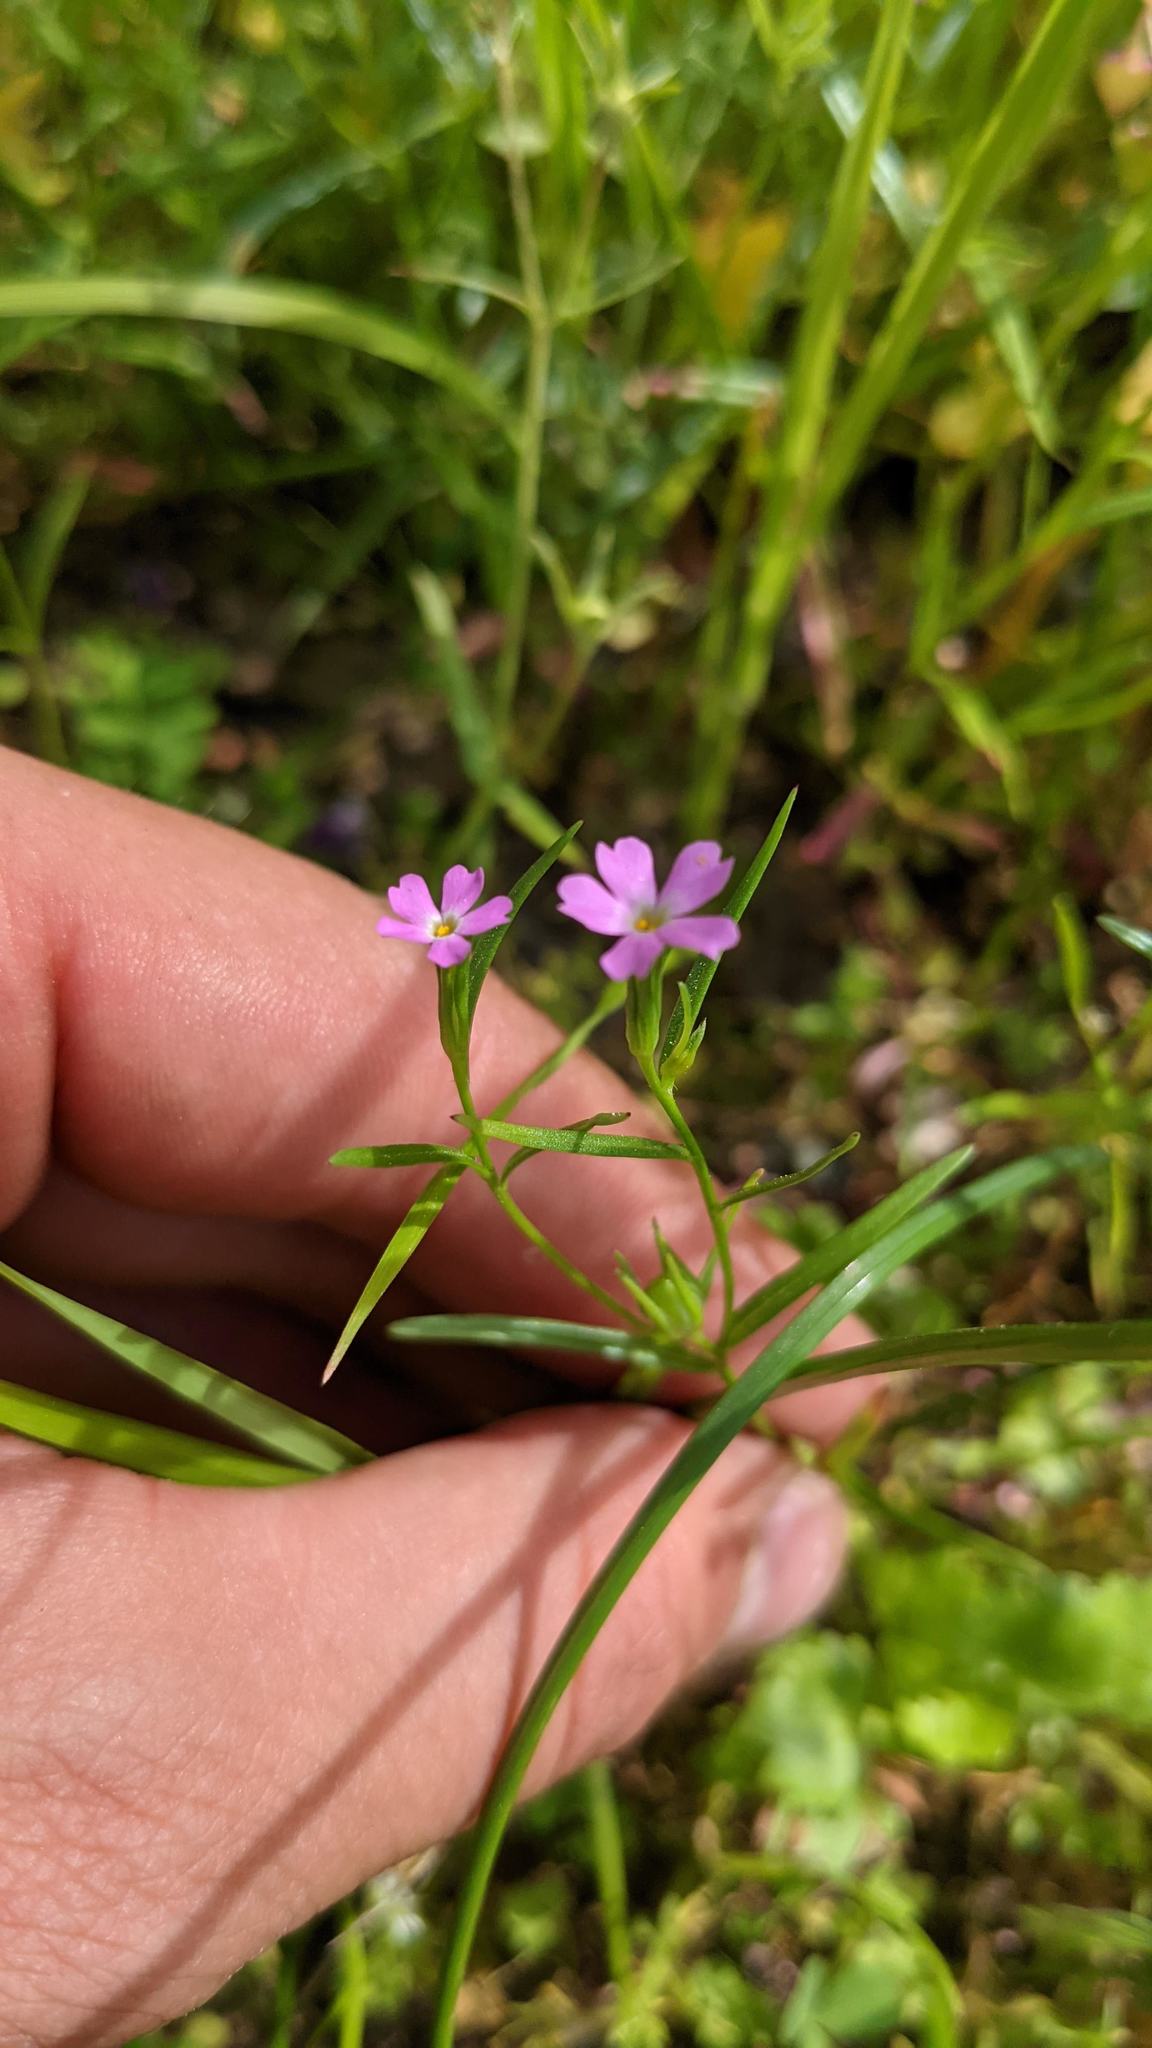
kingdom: Plantae
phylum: Tracheophyta
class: Magnoliopsida
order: Ericales
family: Polemoniaceae
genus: Phlox
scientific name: Phlox gracilis
